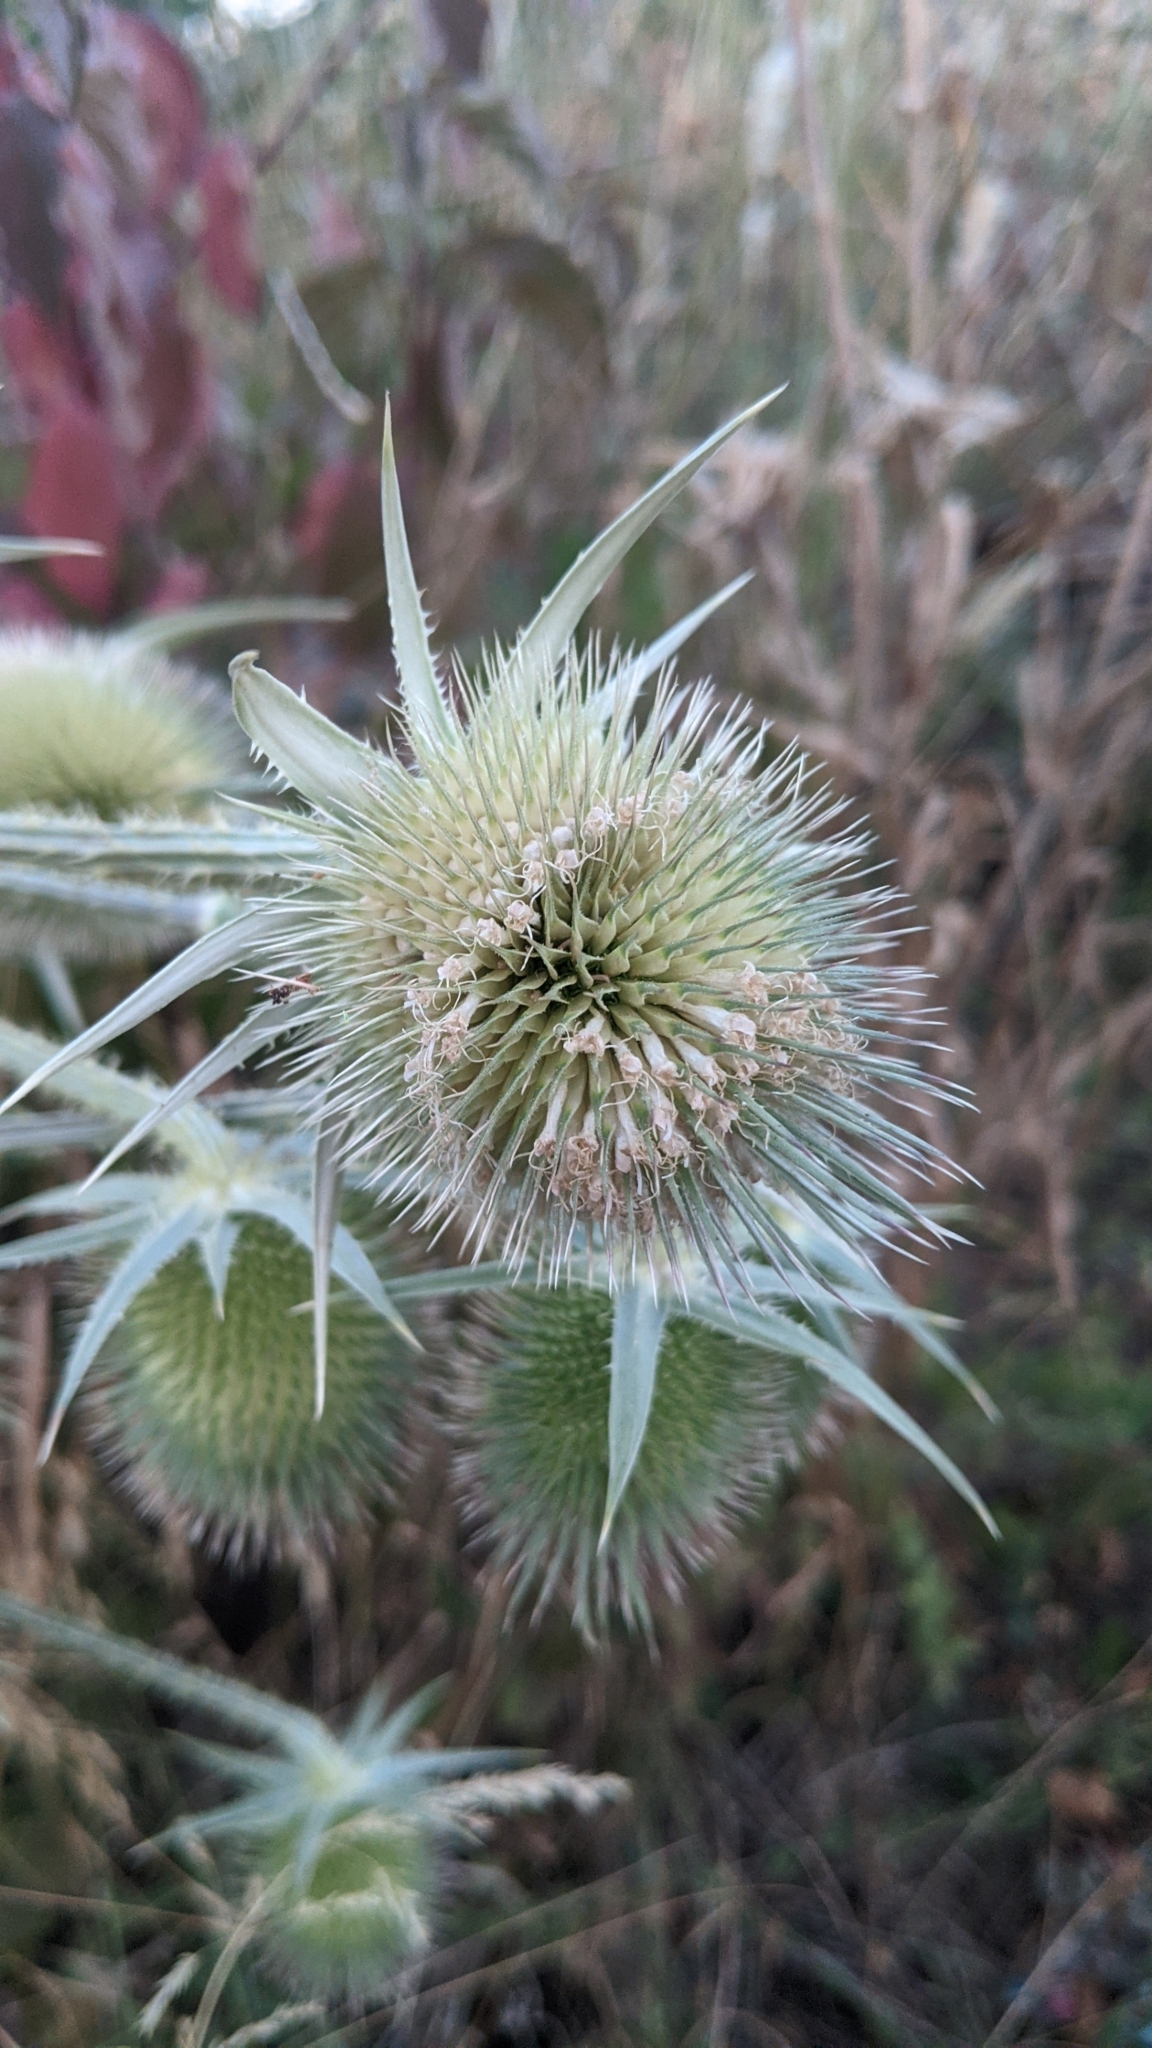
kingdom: Plantae
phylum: Tracheophyta
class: Magnoliopsida
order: Dipsacales
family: Caprifoliaceae
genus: Dipsacus
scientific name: Dipsacus laciniatus
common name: Cut-leaved teasel
